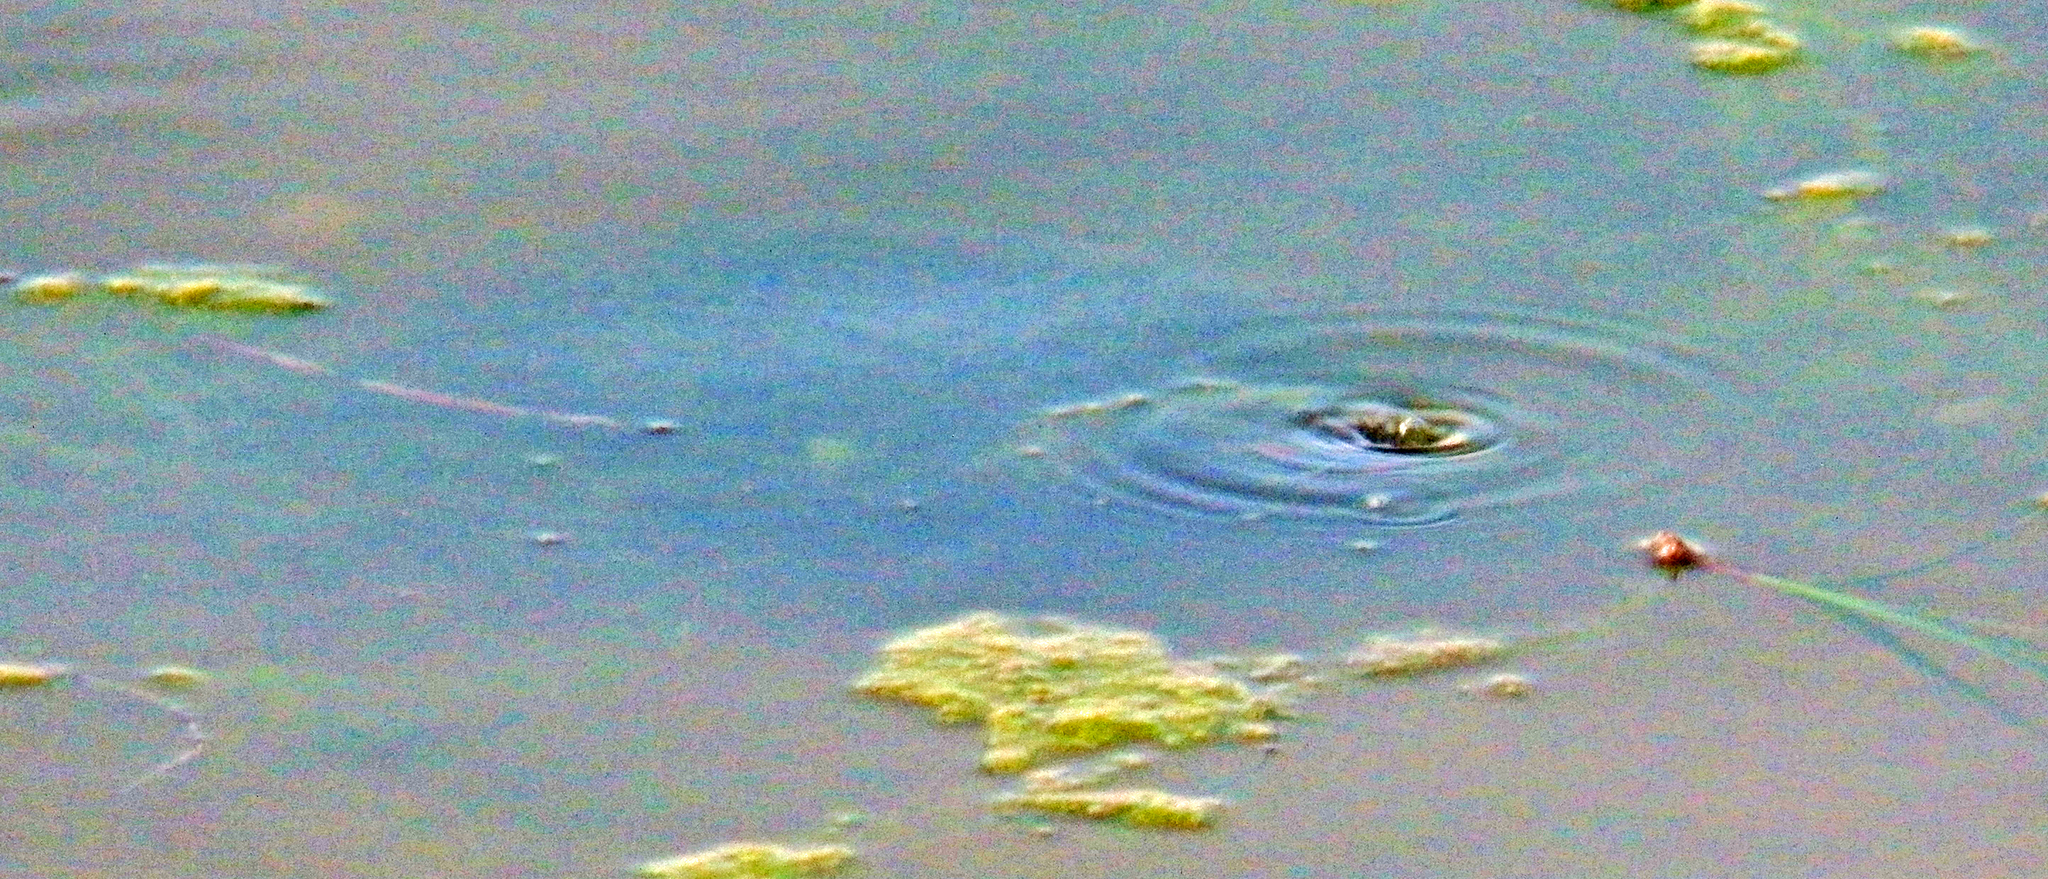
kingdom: Animalia
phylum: Chordata
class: Testudines
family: Emydidae
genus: Trachemys
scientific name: Trachemys scripta
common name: Slider
